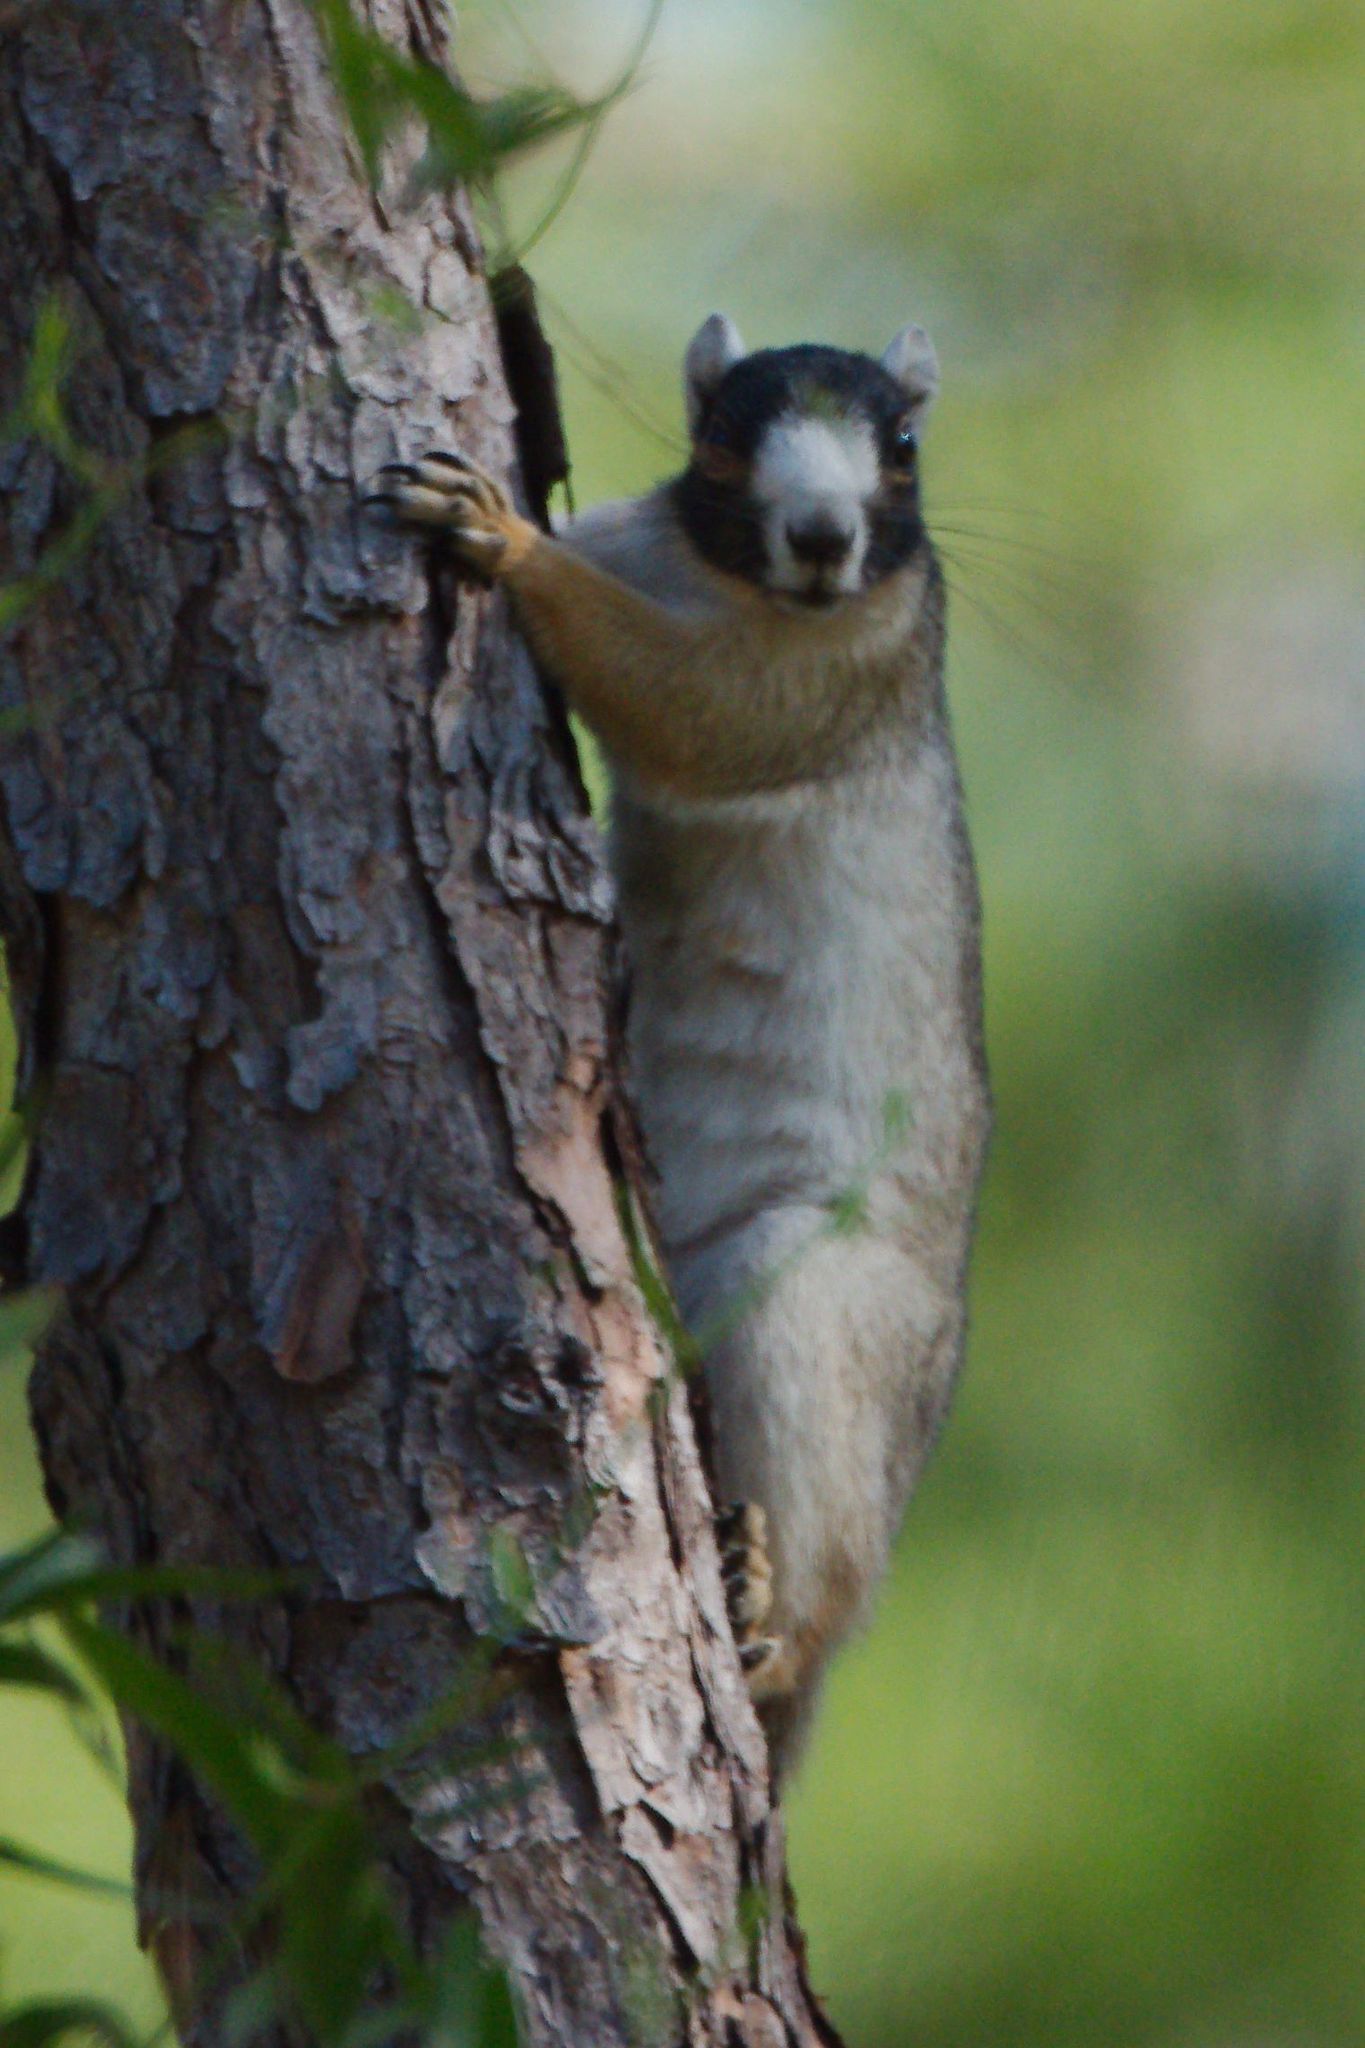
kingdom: Animalia
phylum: Chordata
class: Mammalia
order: Rodentia
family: Sciuridae
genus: Sciurus
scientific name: Sciurus niger
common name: Fox squirrel
